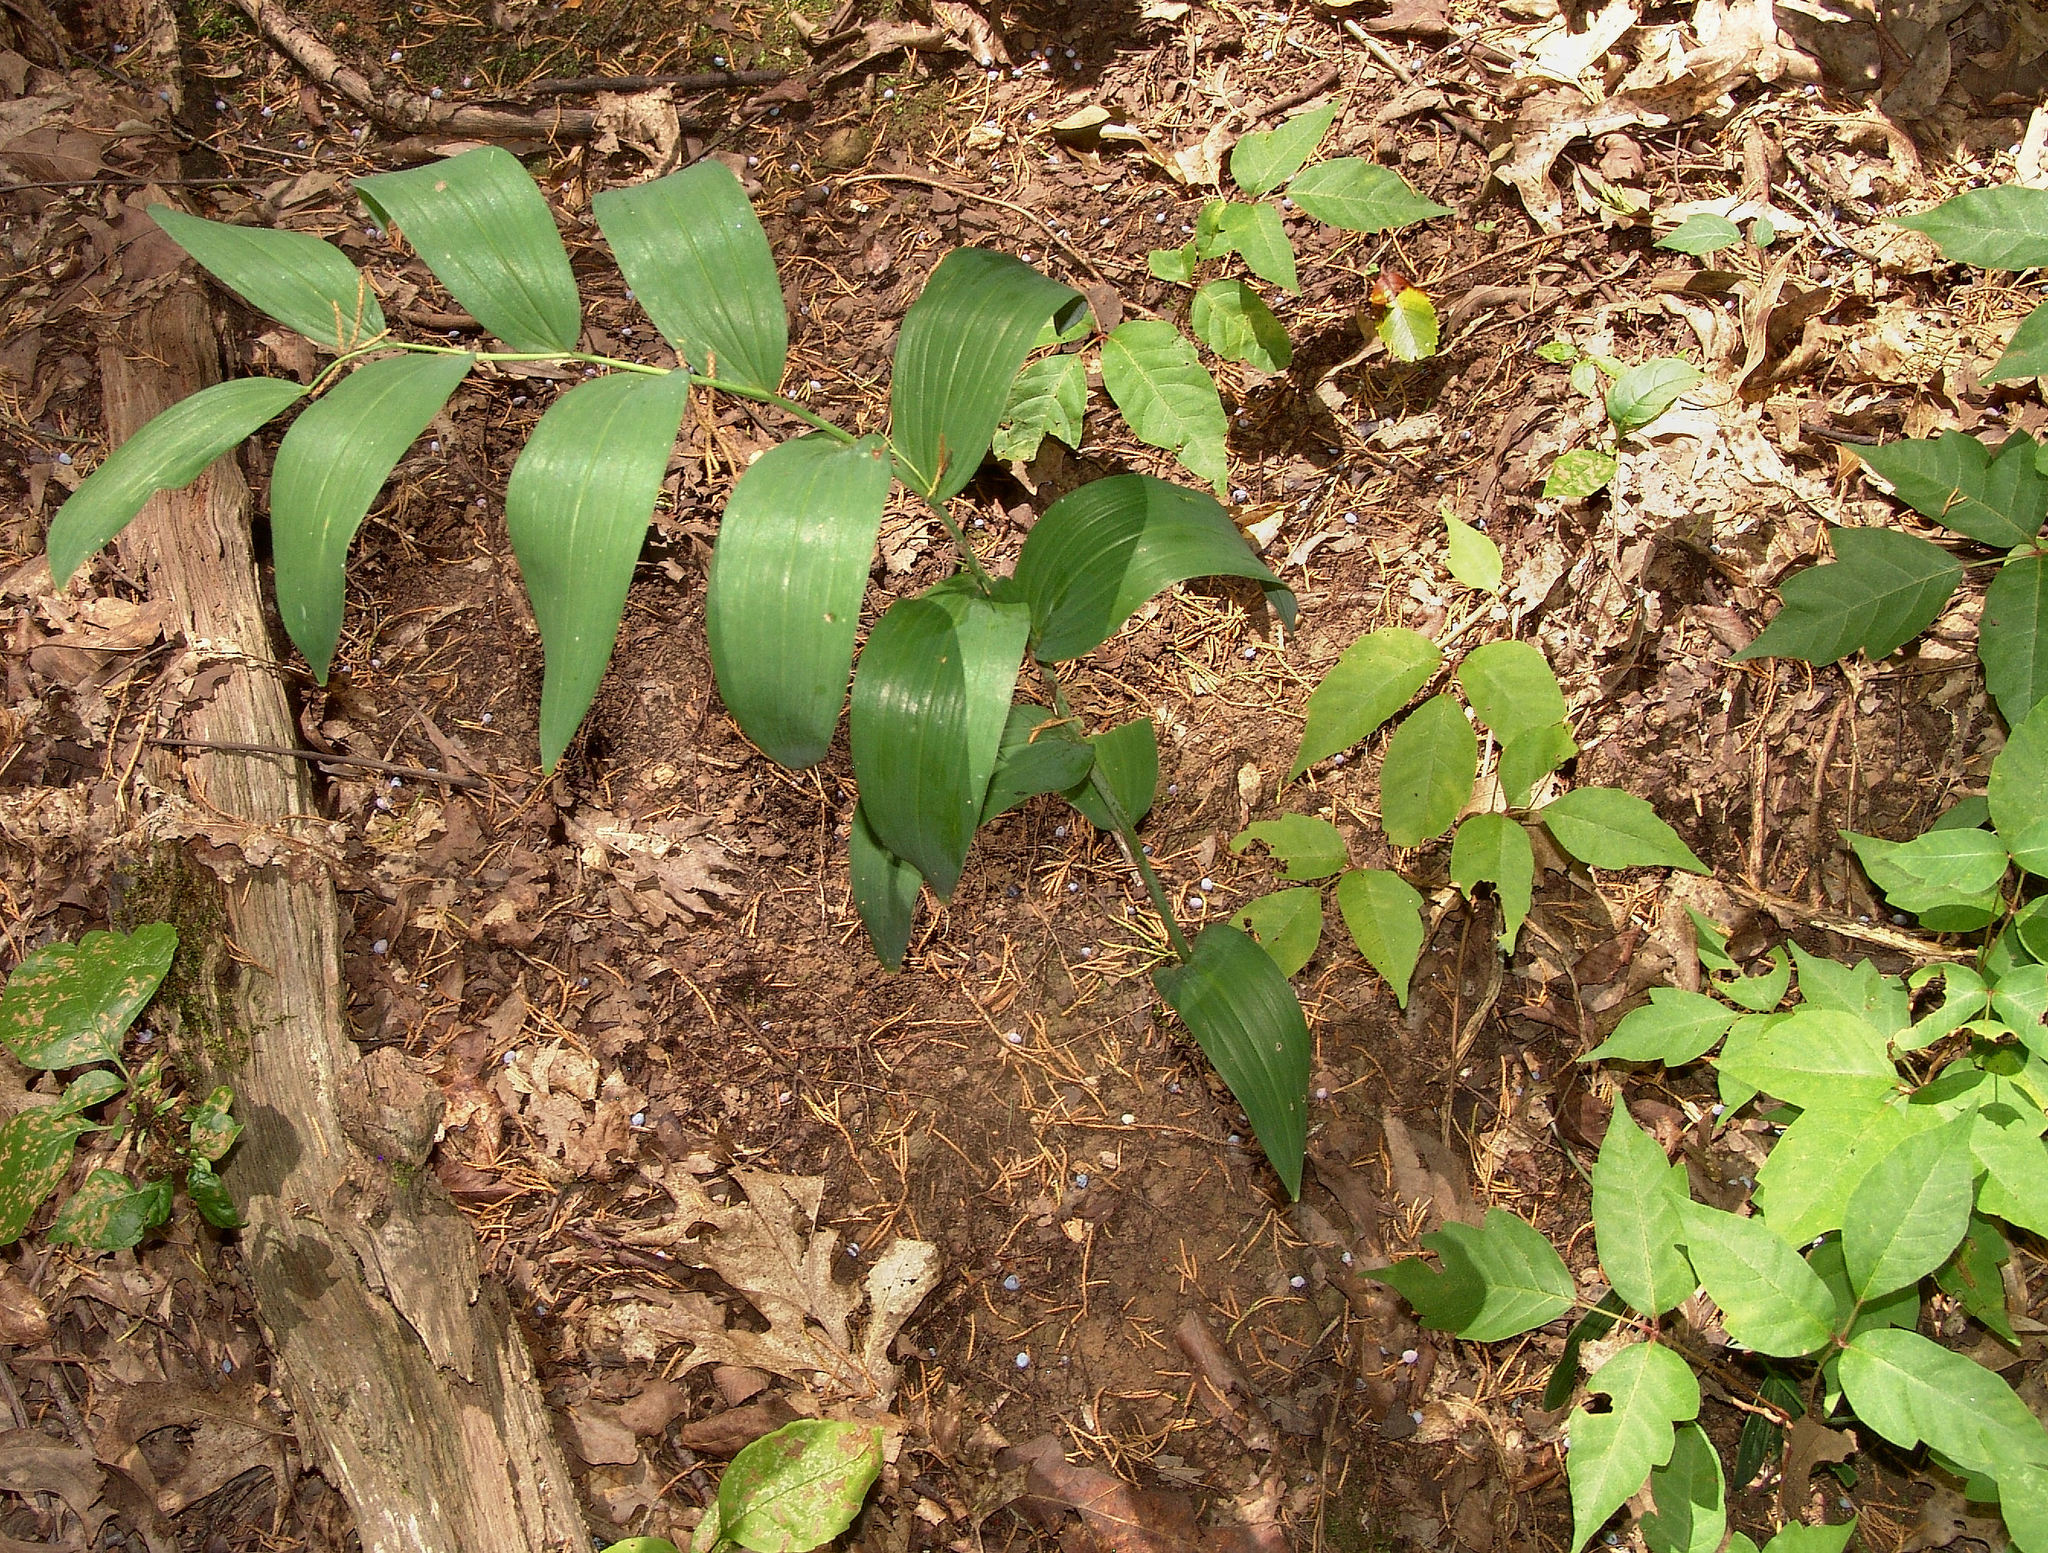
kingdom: Plantae
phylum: Tracheophyta
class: Liliopsida
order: Asparagales
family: Asparagaceae
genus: Polygonatum
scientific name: Polygonatum biflorum
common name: American solomon's-seal
